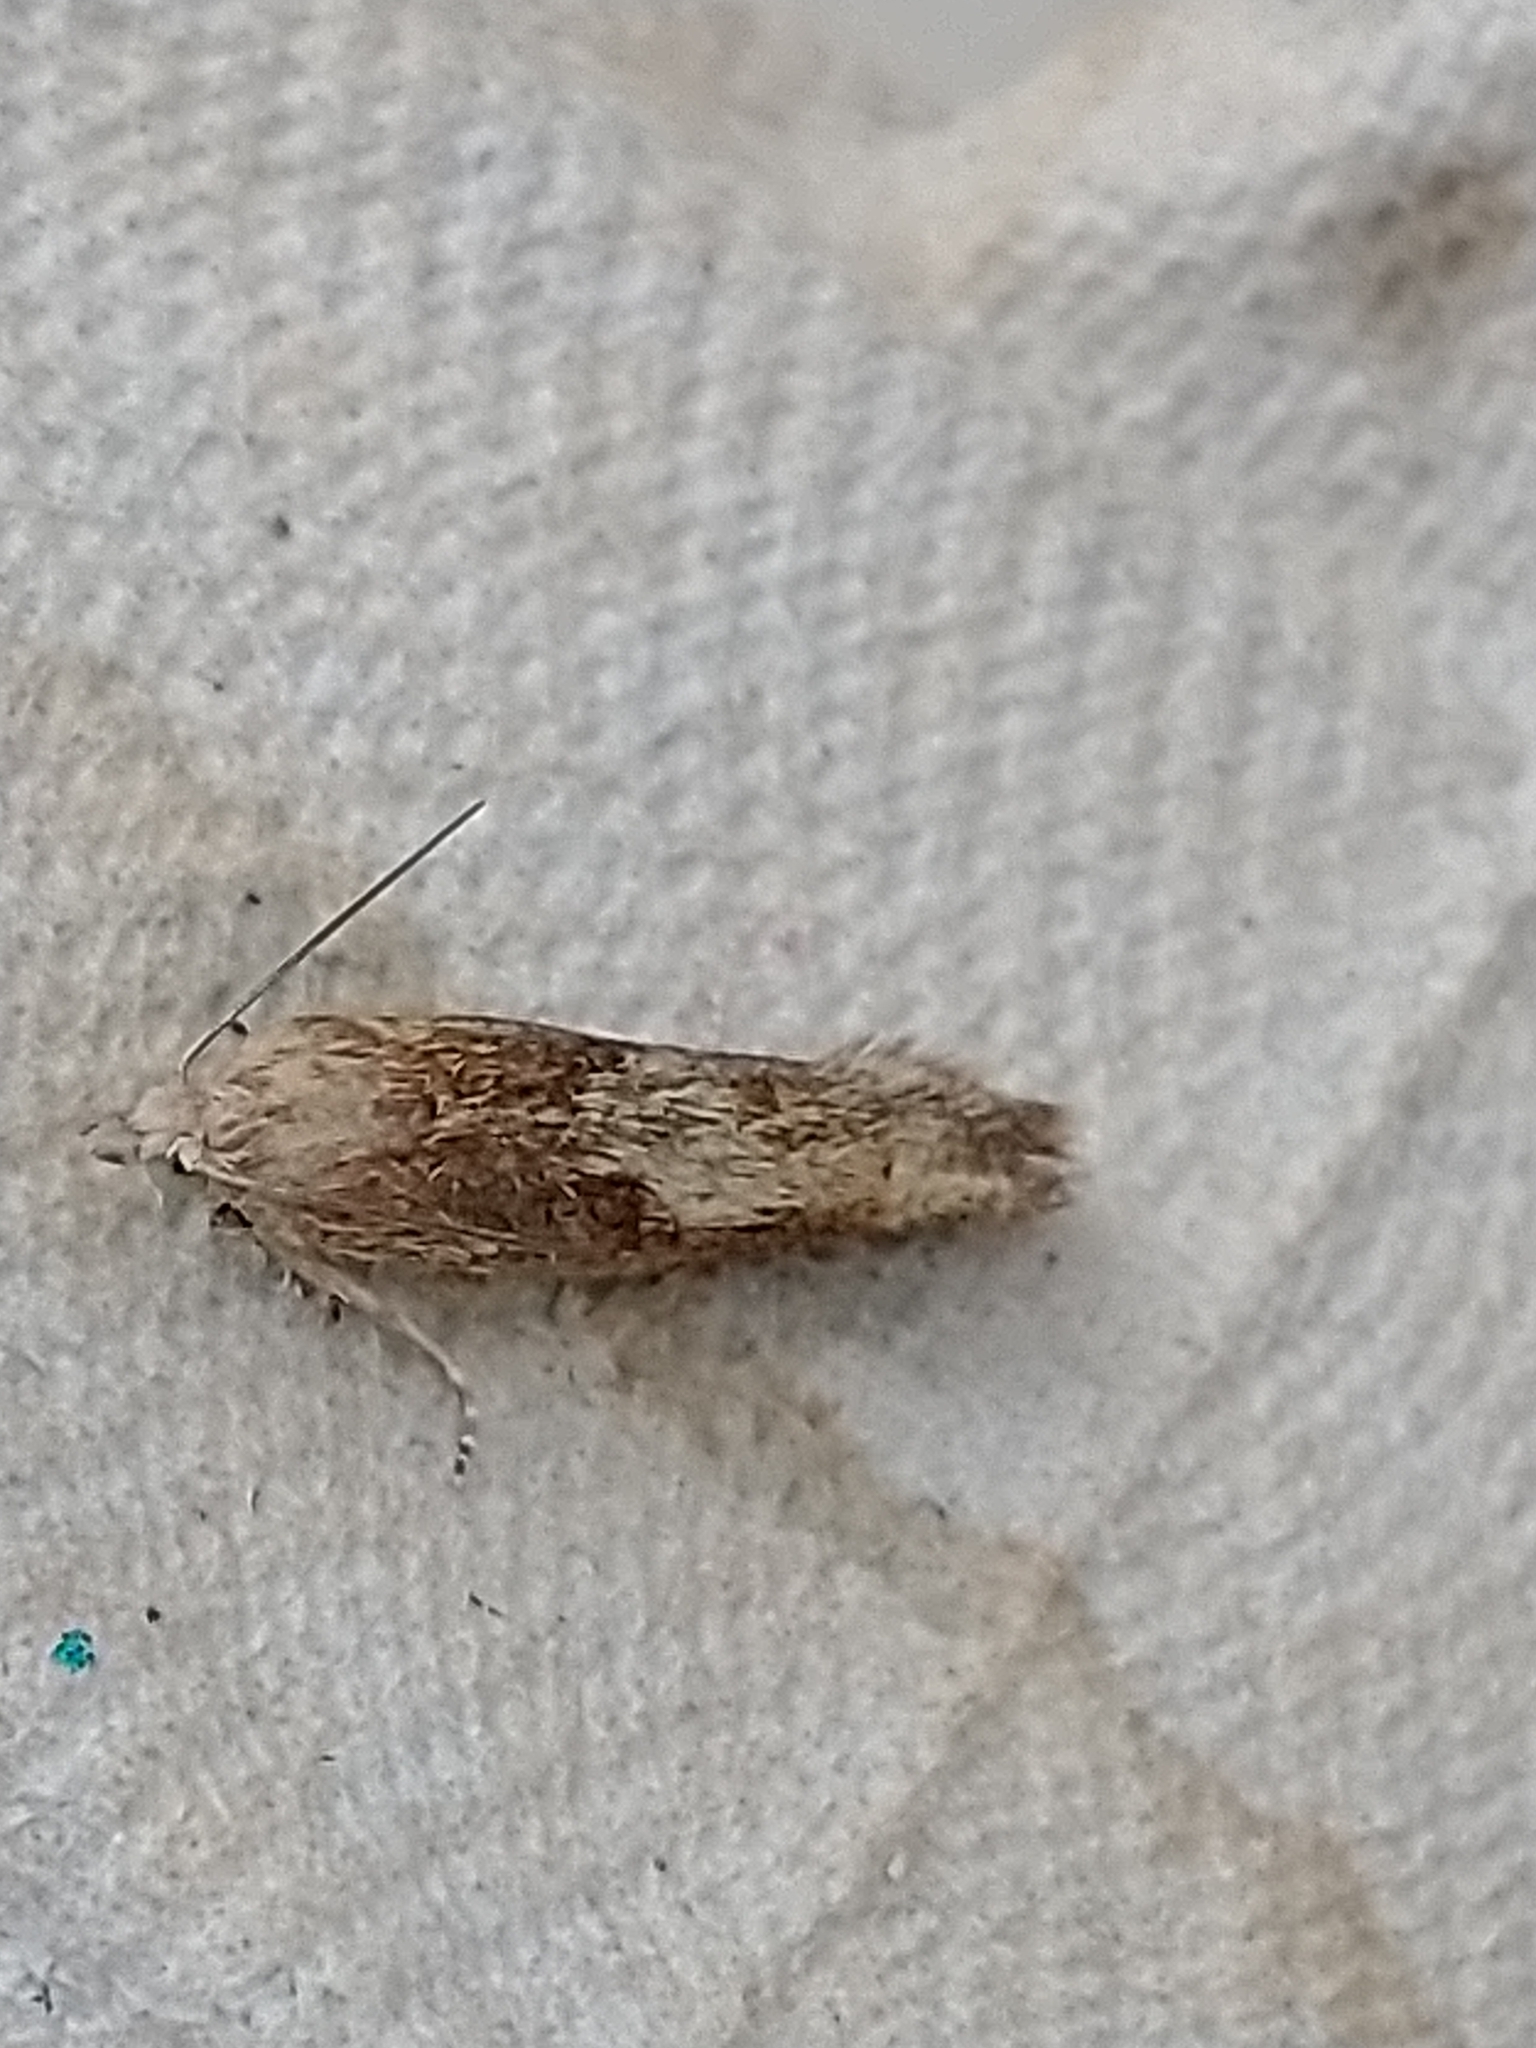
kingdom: Animalia
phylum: Arthropoda
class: Insecta
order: Lepidoptera
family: Tortricidae
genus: Eucosma
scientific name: Eucosma cana
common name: Hoary belle
